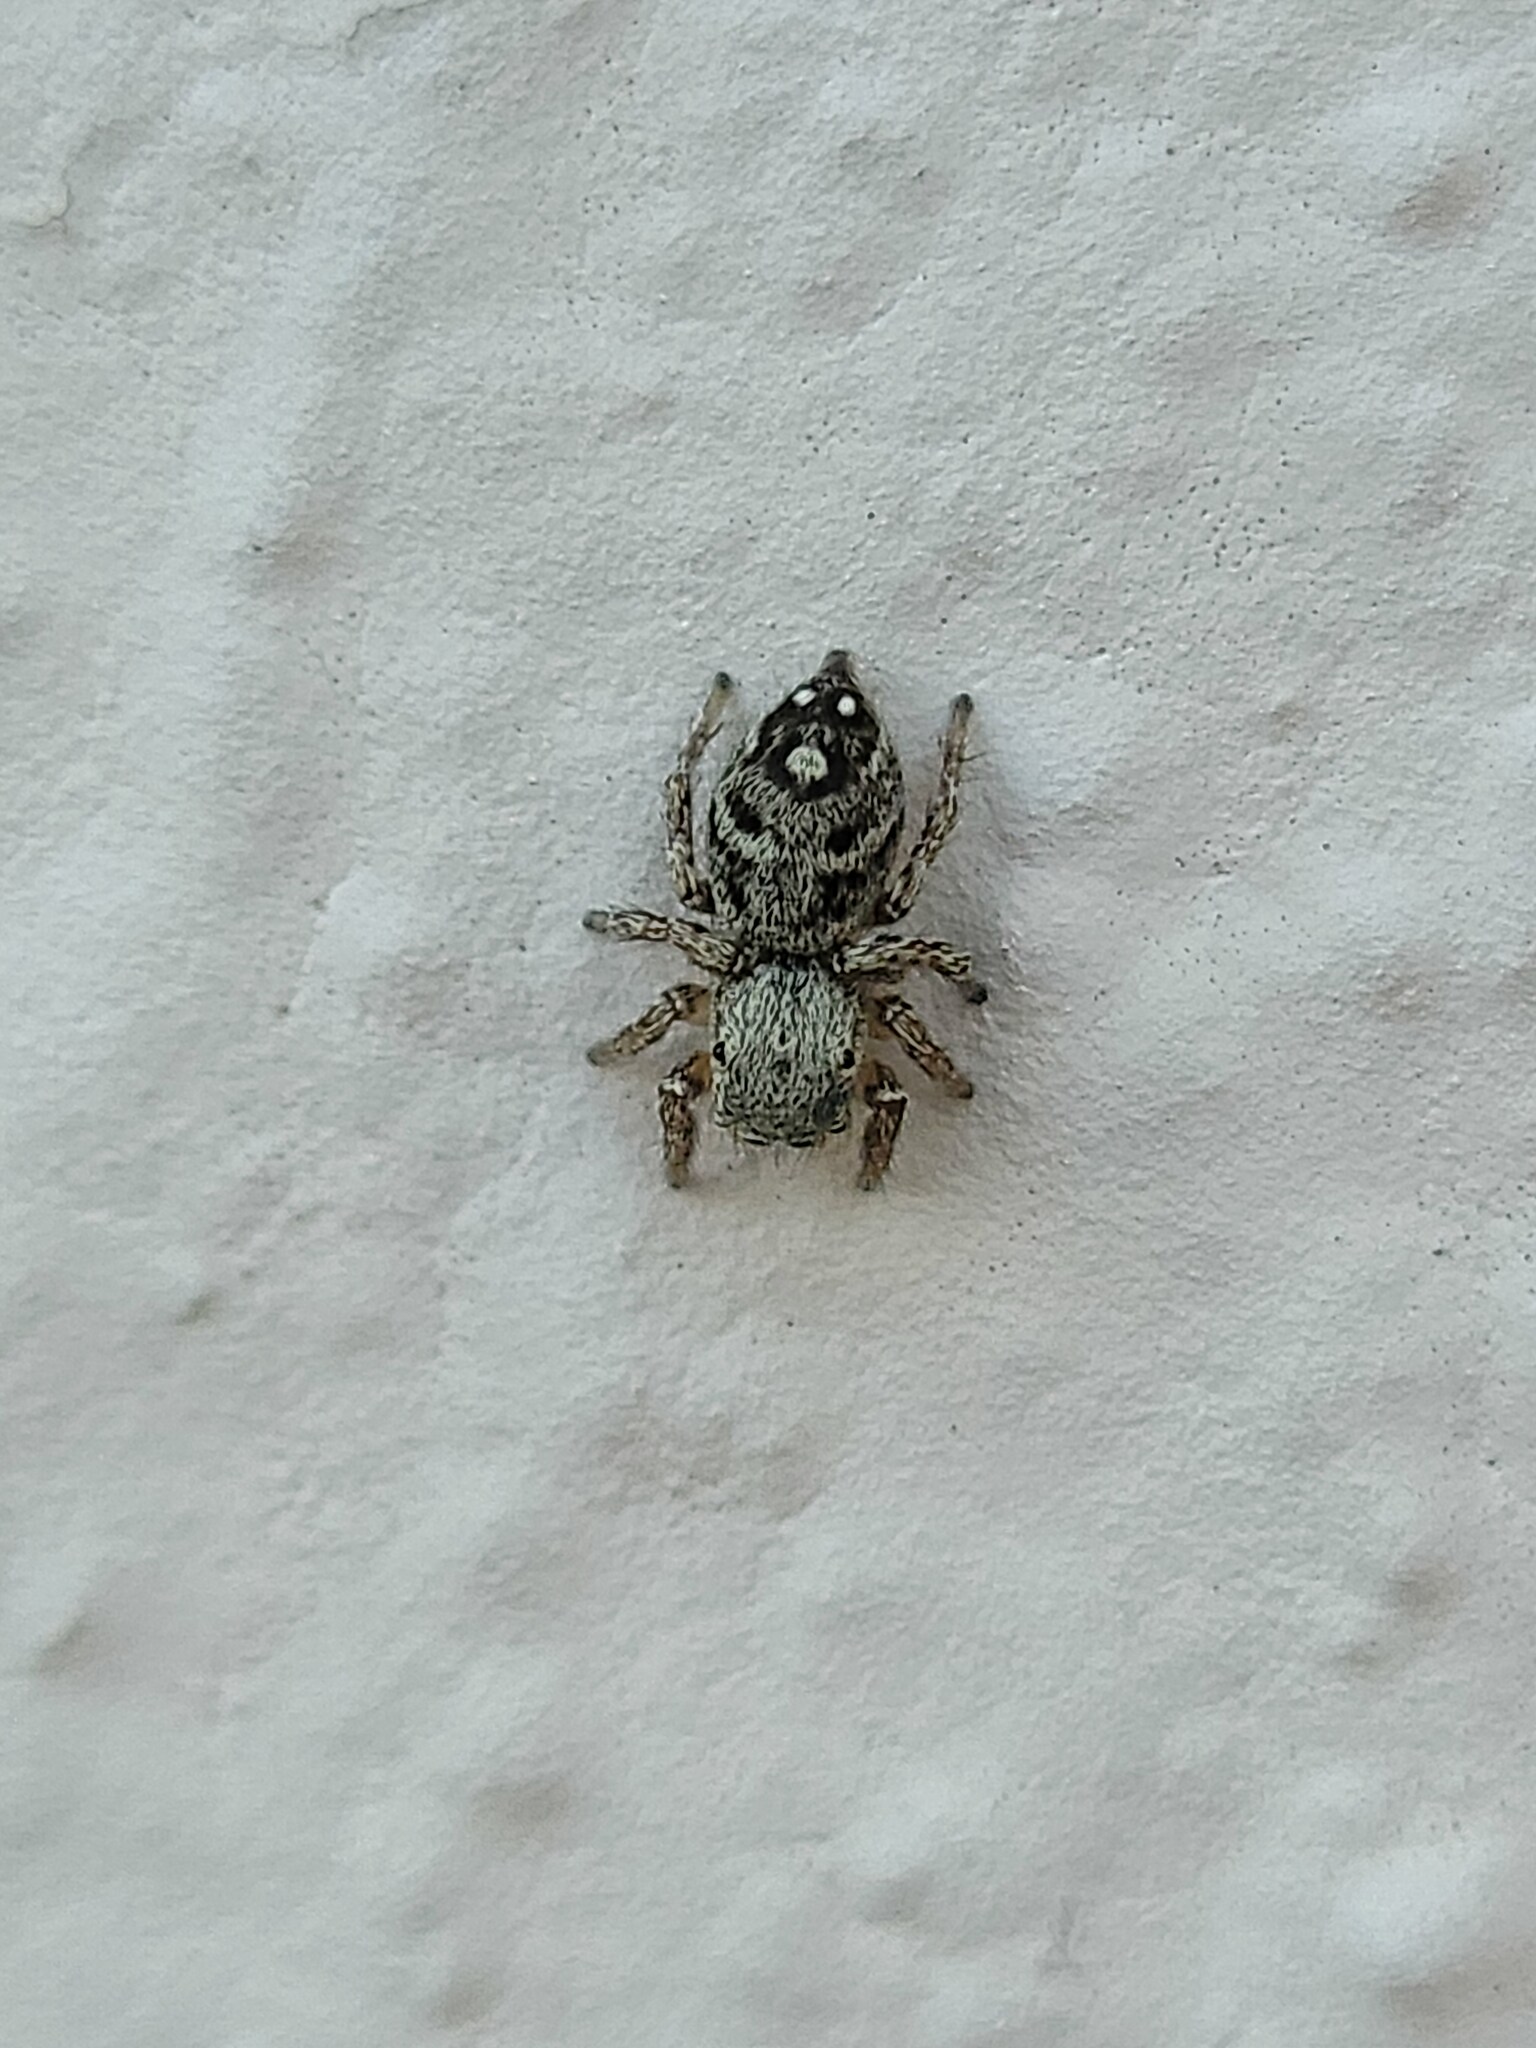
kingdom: Animalia
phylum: Arthropoda
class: Arachnida
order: Araneae
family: Salticidae
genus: Habronattus
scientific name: Habronattus mexicanus
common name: Jumping spiders
